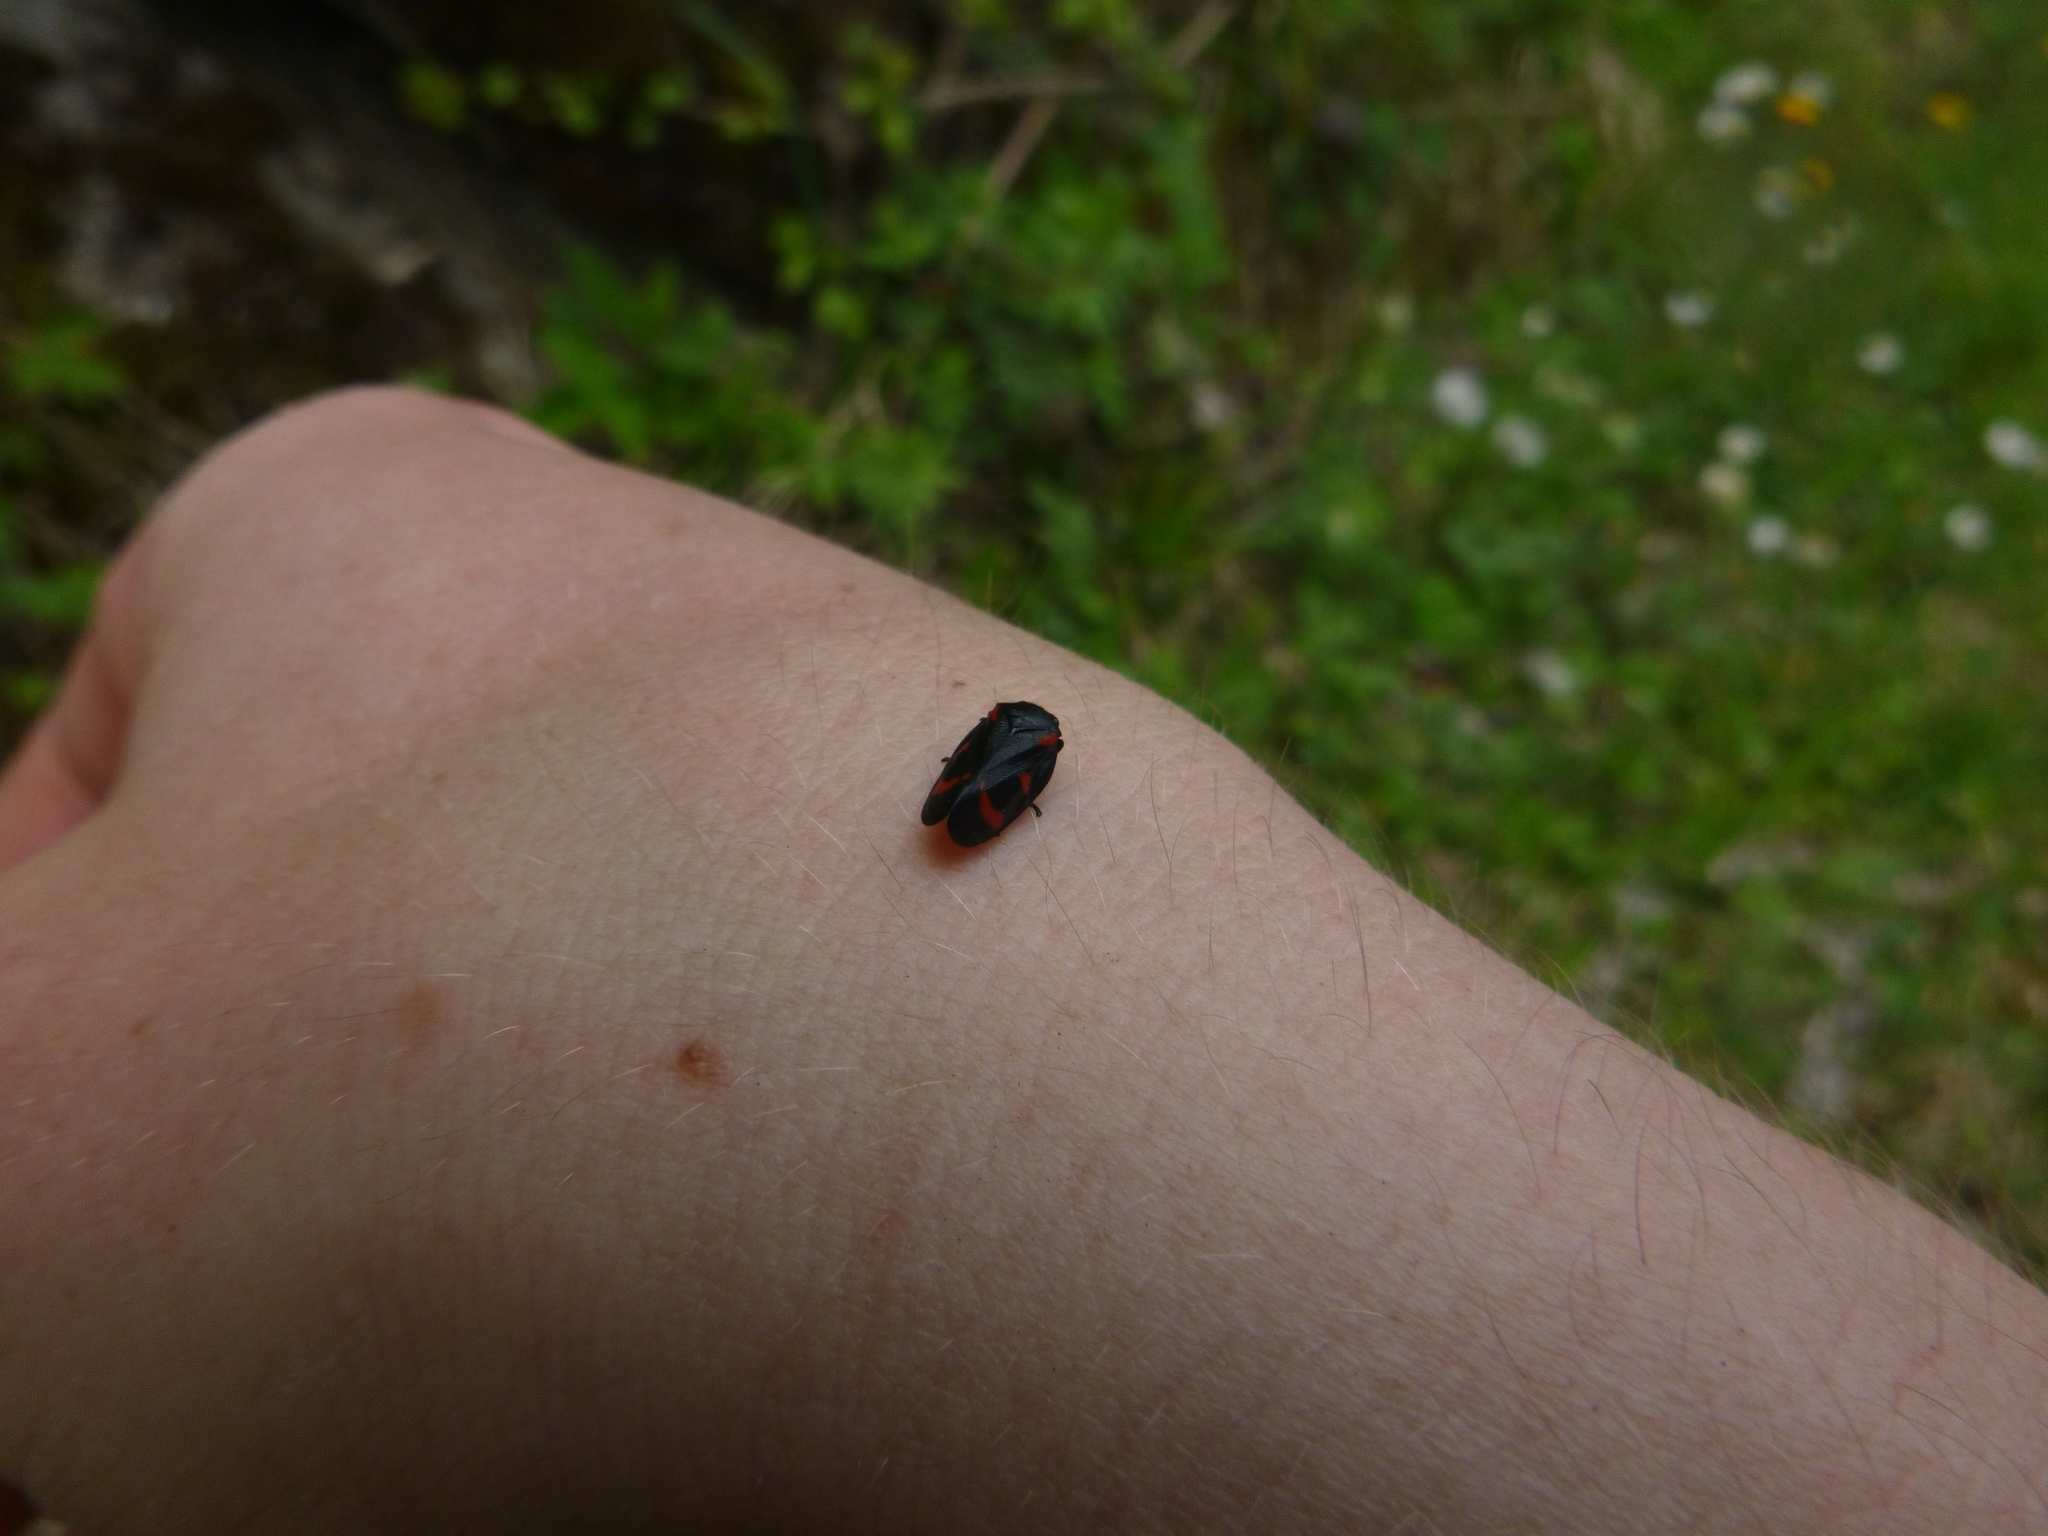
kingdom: Animalia
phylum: Arthropoda
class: Insecta
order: Hemiptera
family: Cercopidae
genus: Cercopis
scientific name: Cercopis arcuata
